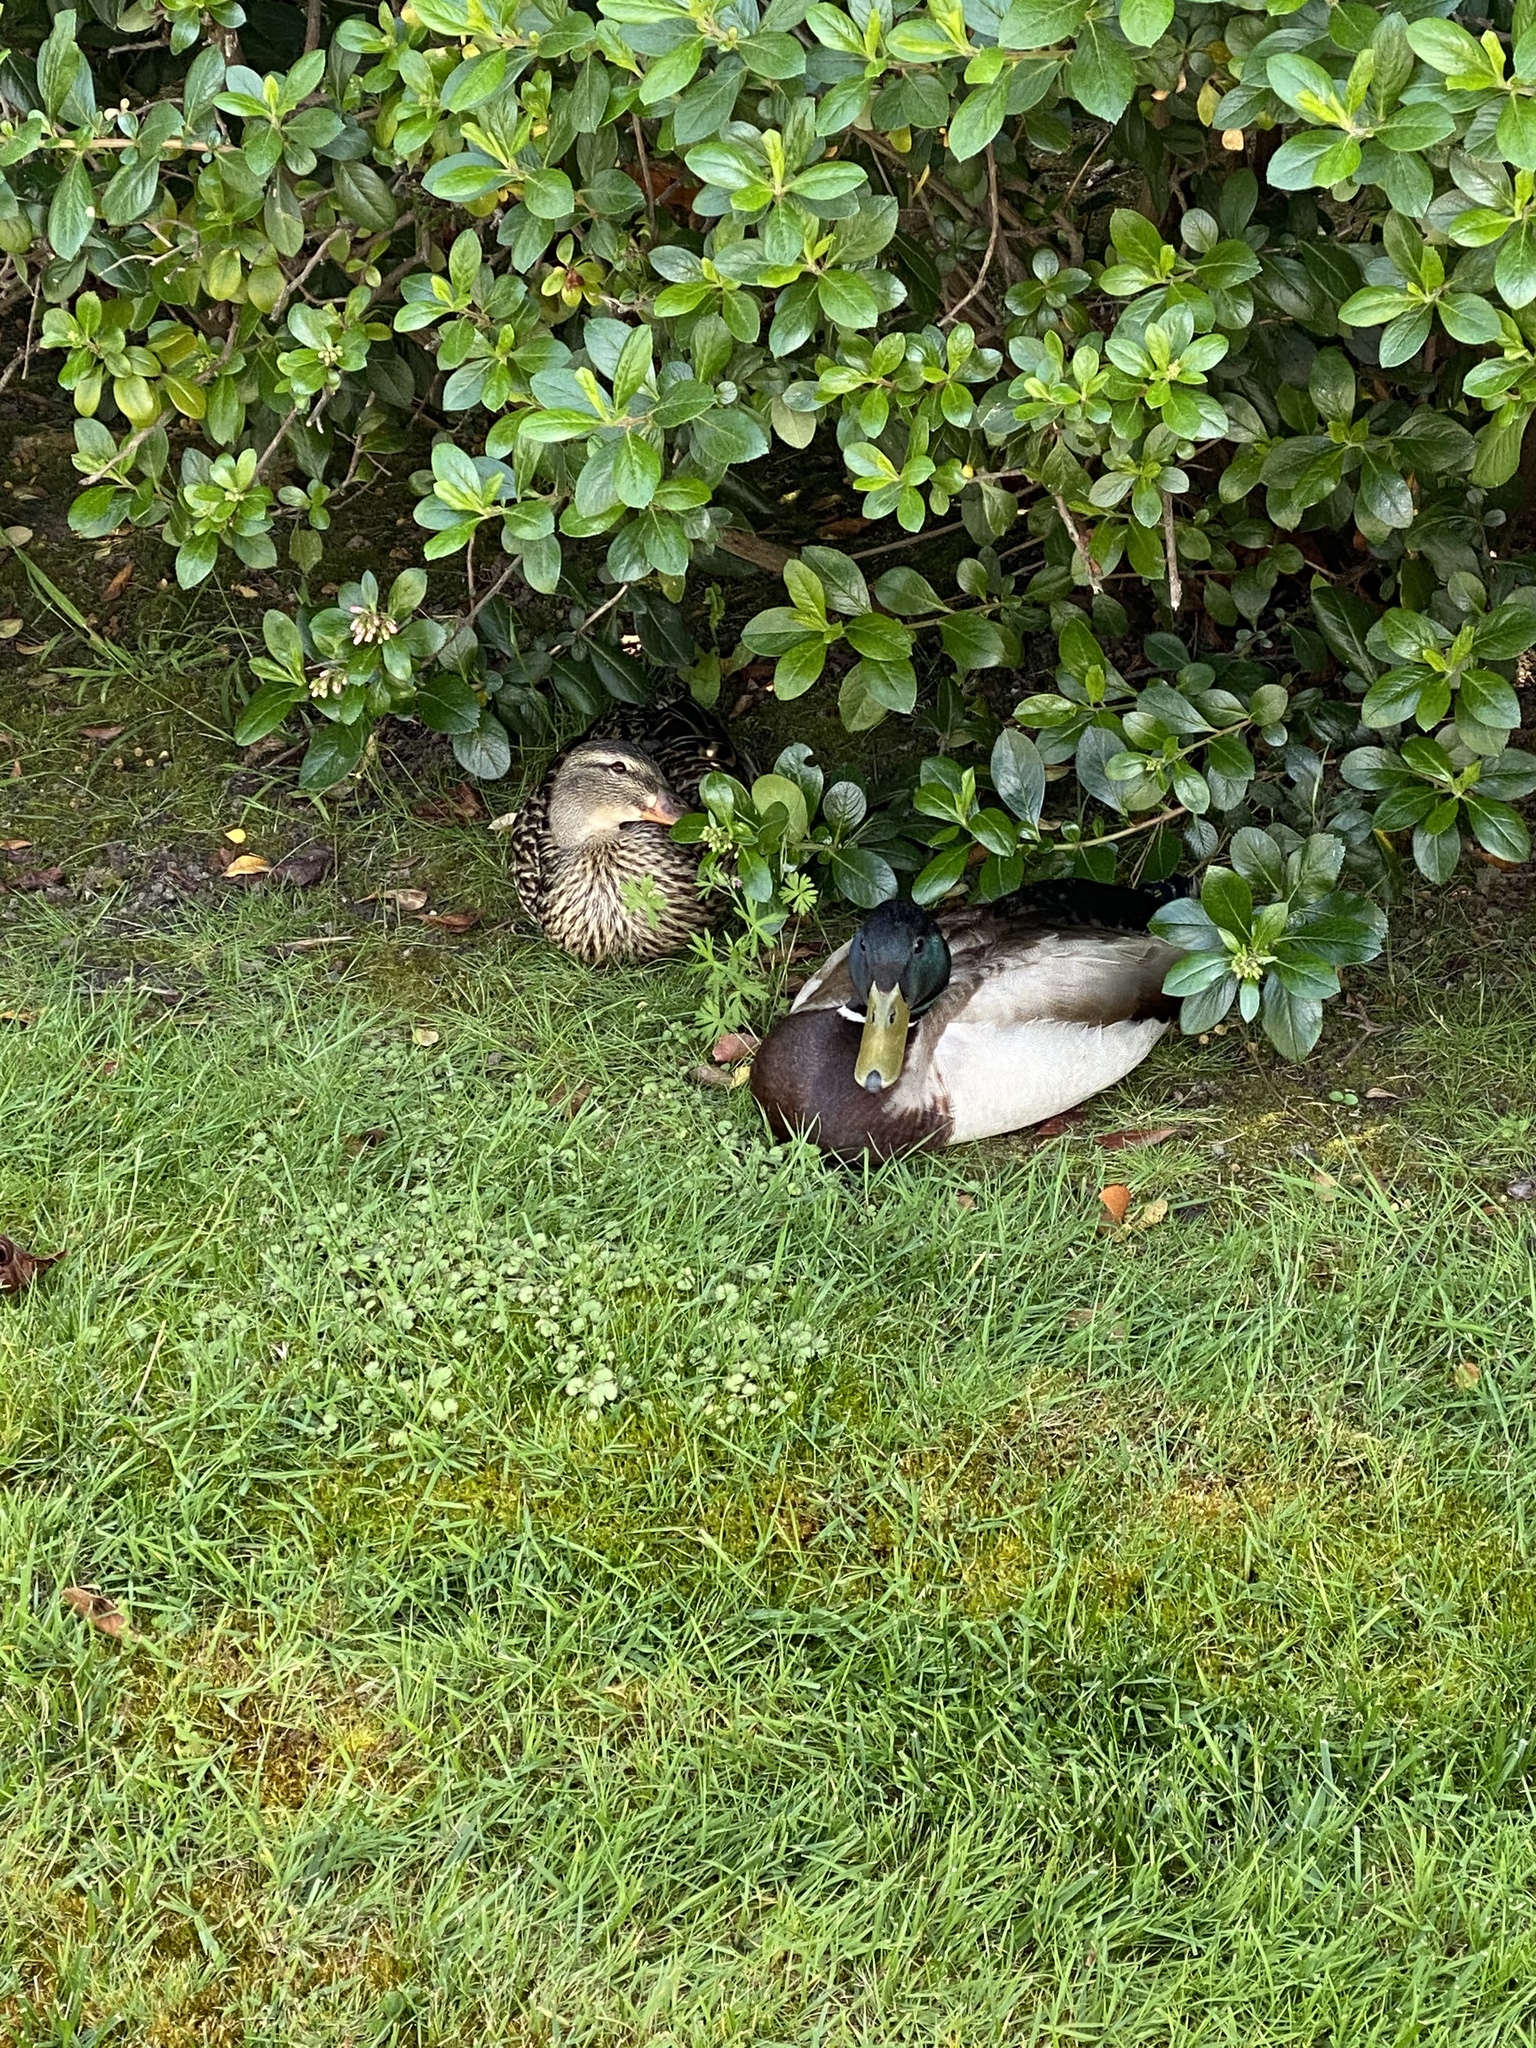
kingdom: Animalia
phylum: Chordata
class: Aves
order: Anseriformes
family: Anatidae
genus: Anas
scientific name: Anas platyrhynchos
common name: Mallard
